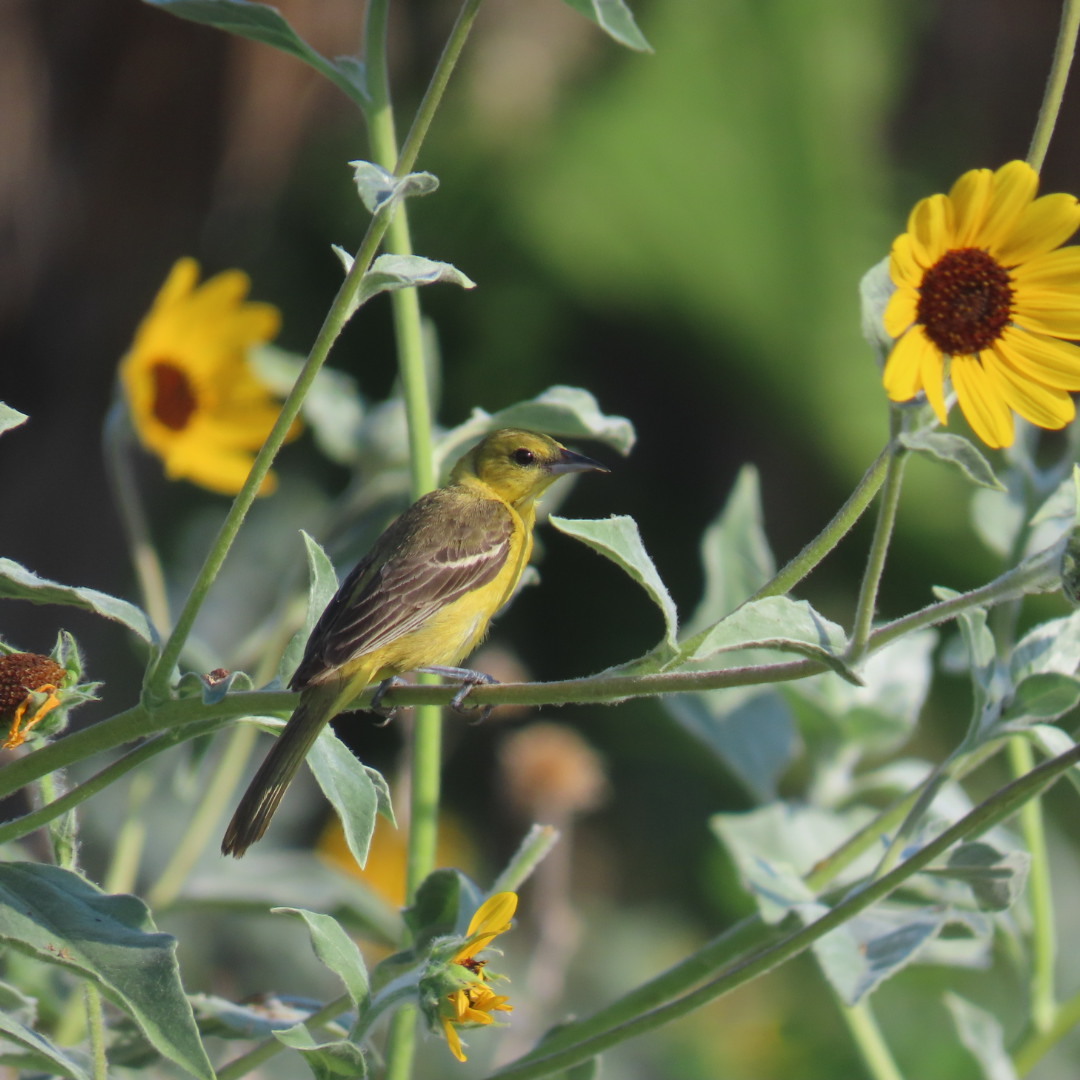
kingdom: Animalia
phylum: Chordata
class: Aves
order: Passeriformes
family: Icteridae
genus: Icterus
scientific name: Icterus spurius
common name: Orchard oriole
